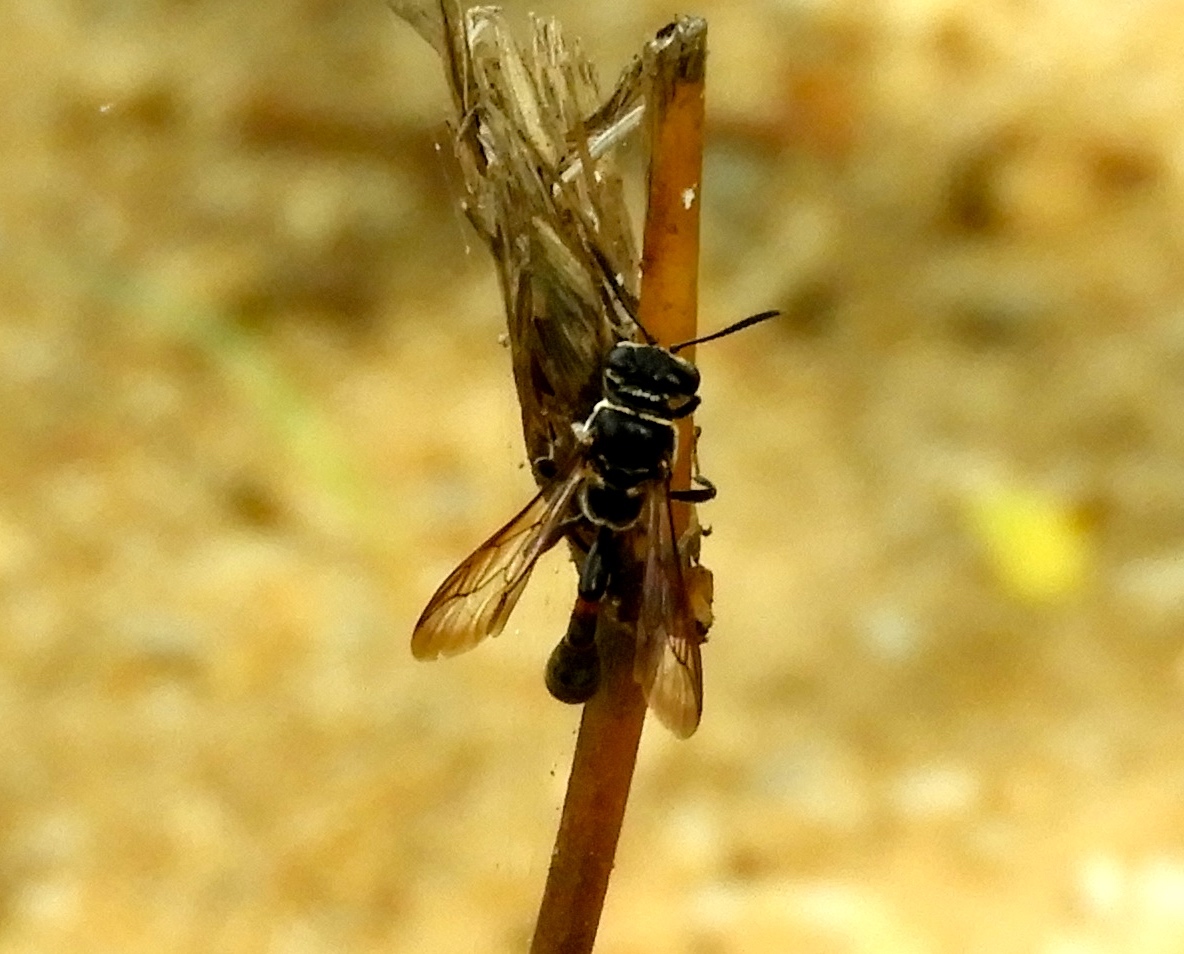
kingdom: Animalia
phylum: Arthropoda
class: Insecta
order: Hymenoptera
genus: Trypargilum
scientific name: Trypargilum
